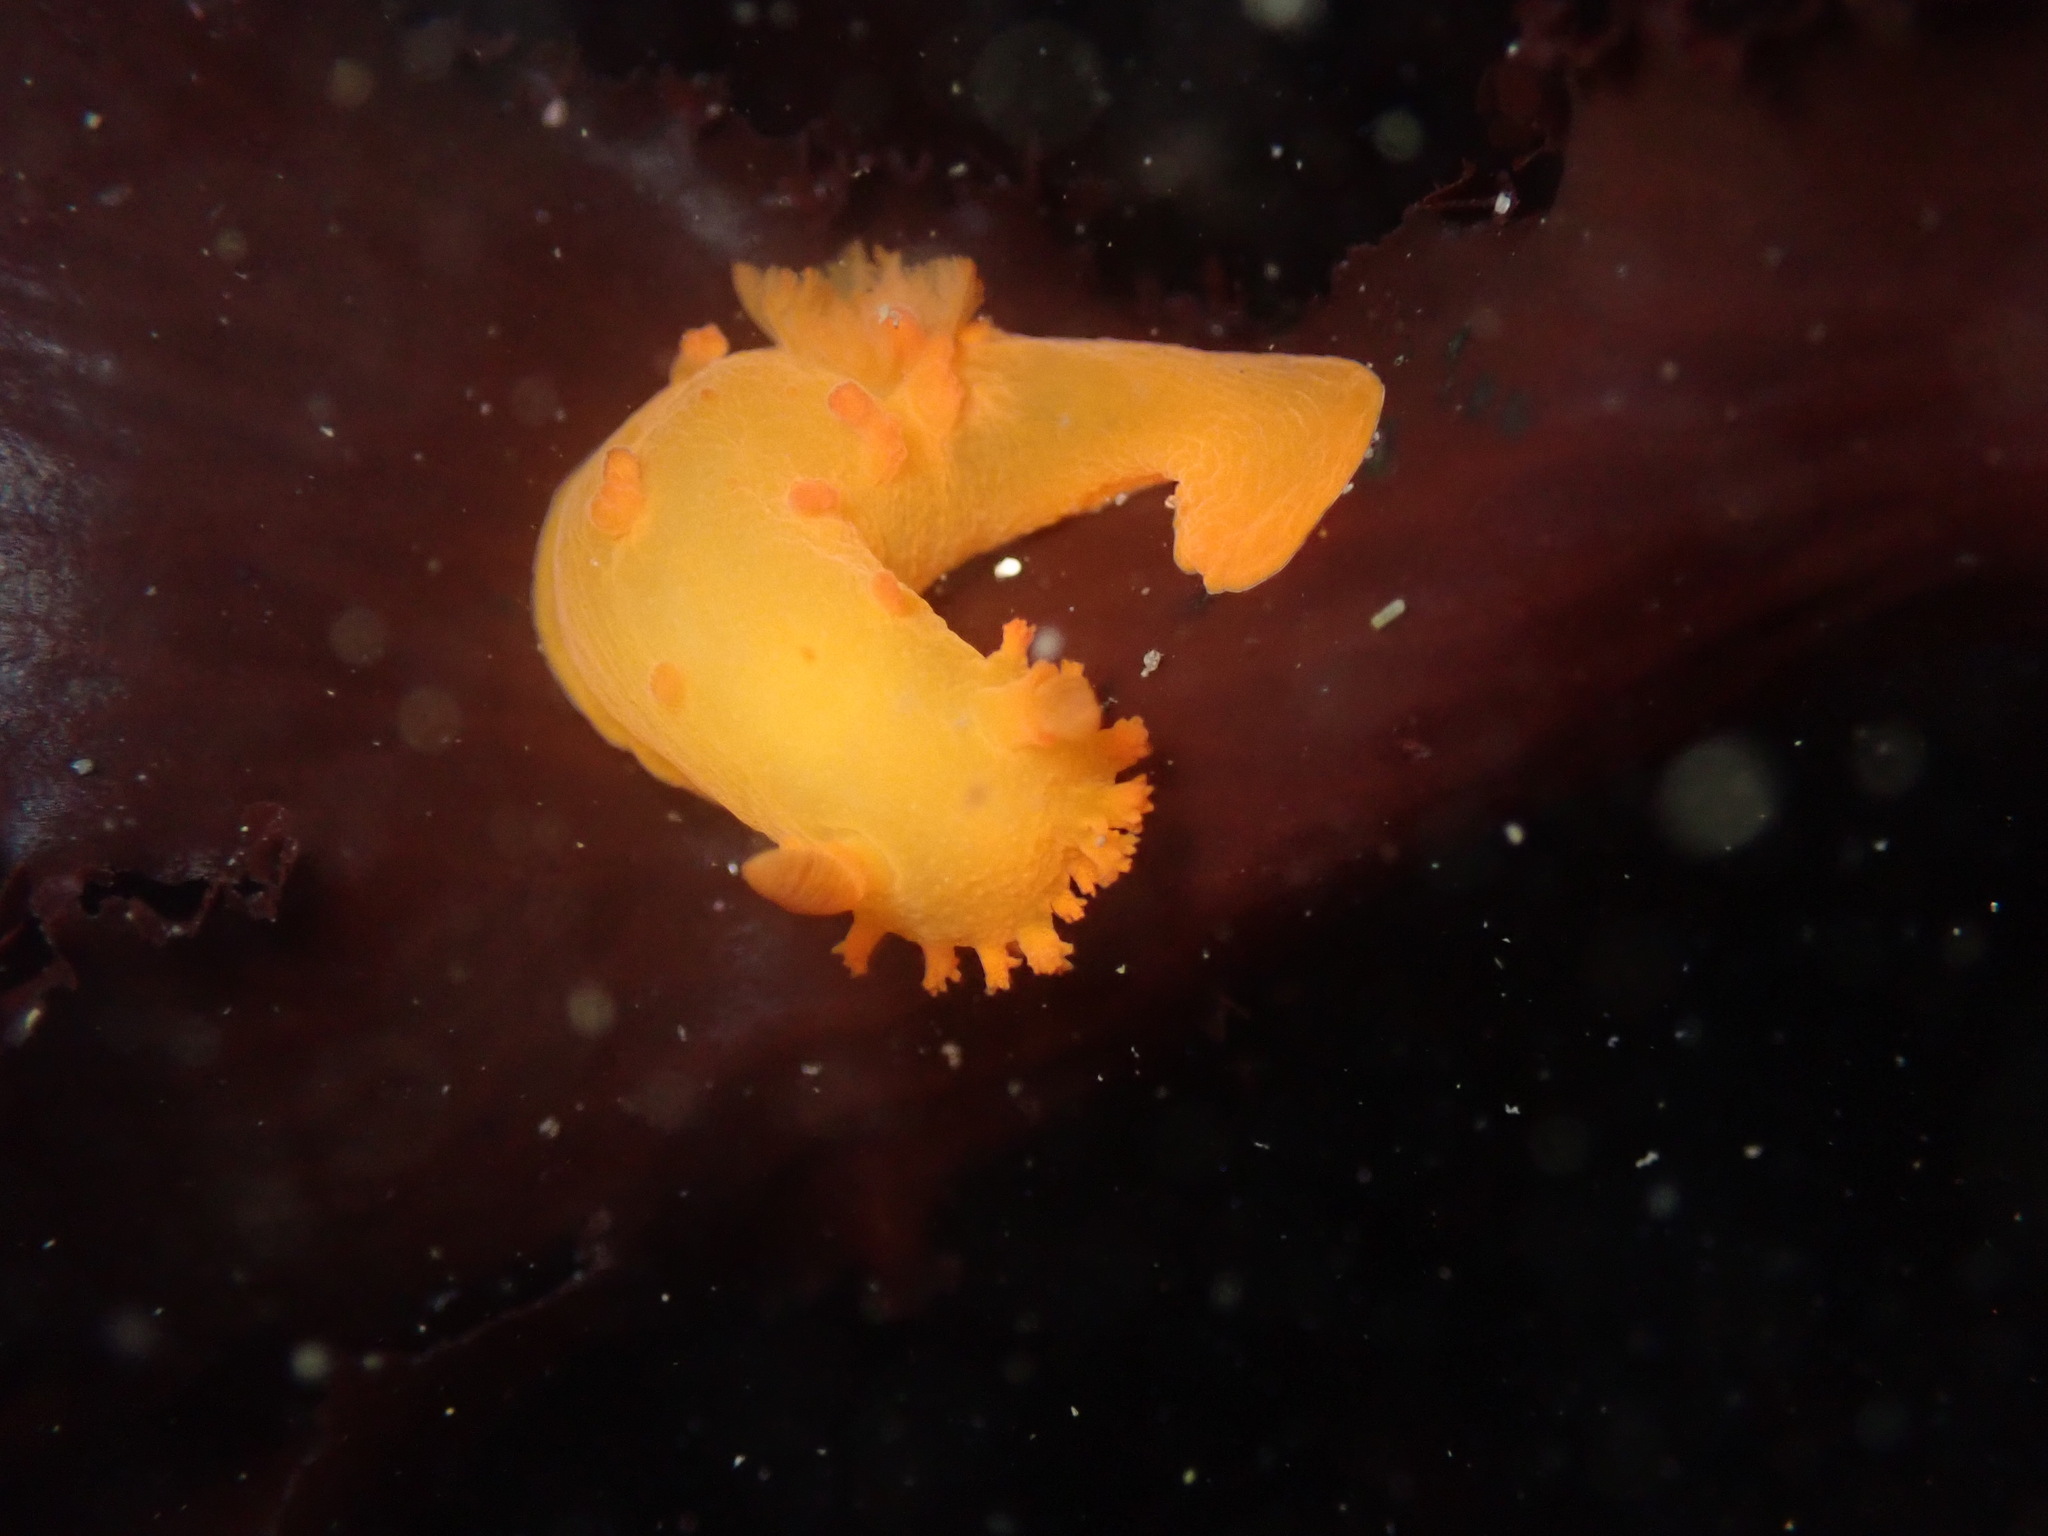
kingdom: Animalia
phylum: Mollusca
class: Gastropoda
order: Nudibranchia
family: Polyceridae
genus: Triopha
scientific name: Triopha maculata
